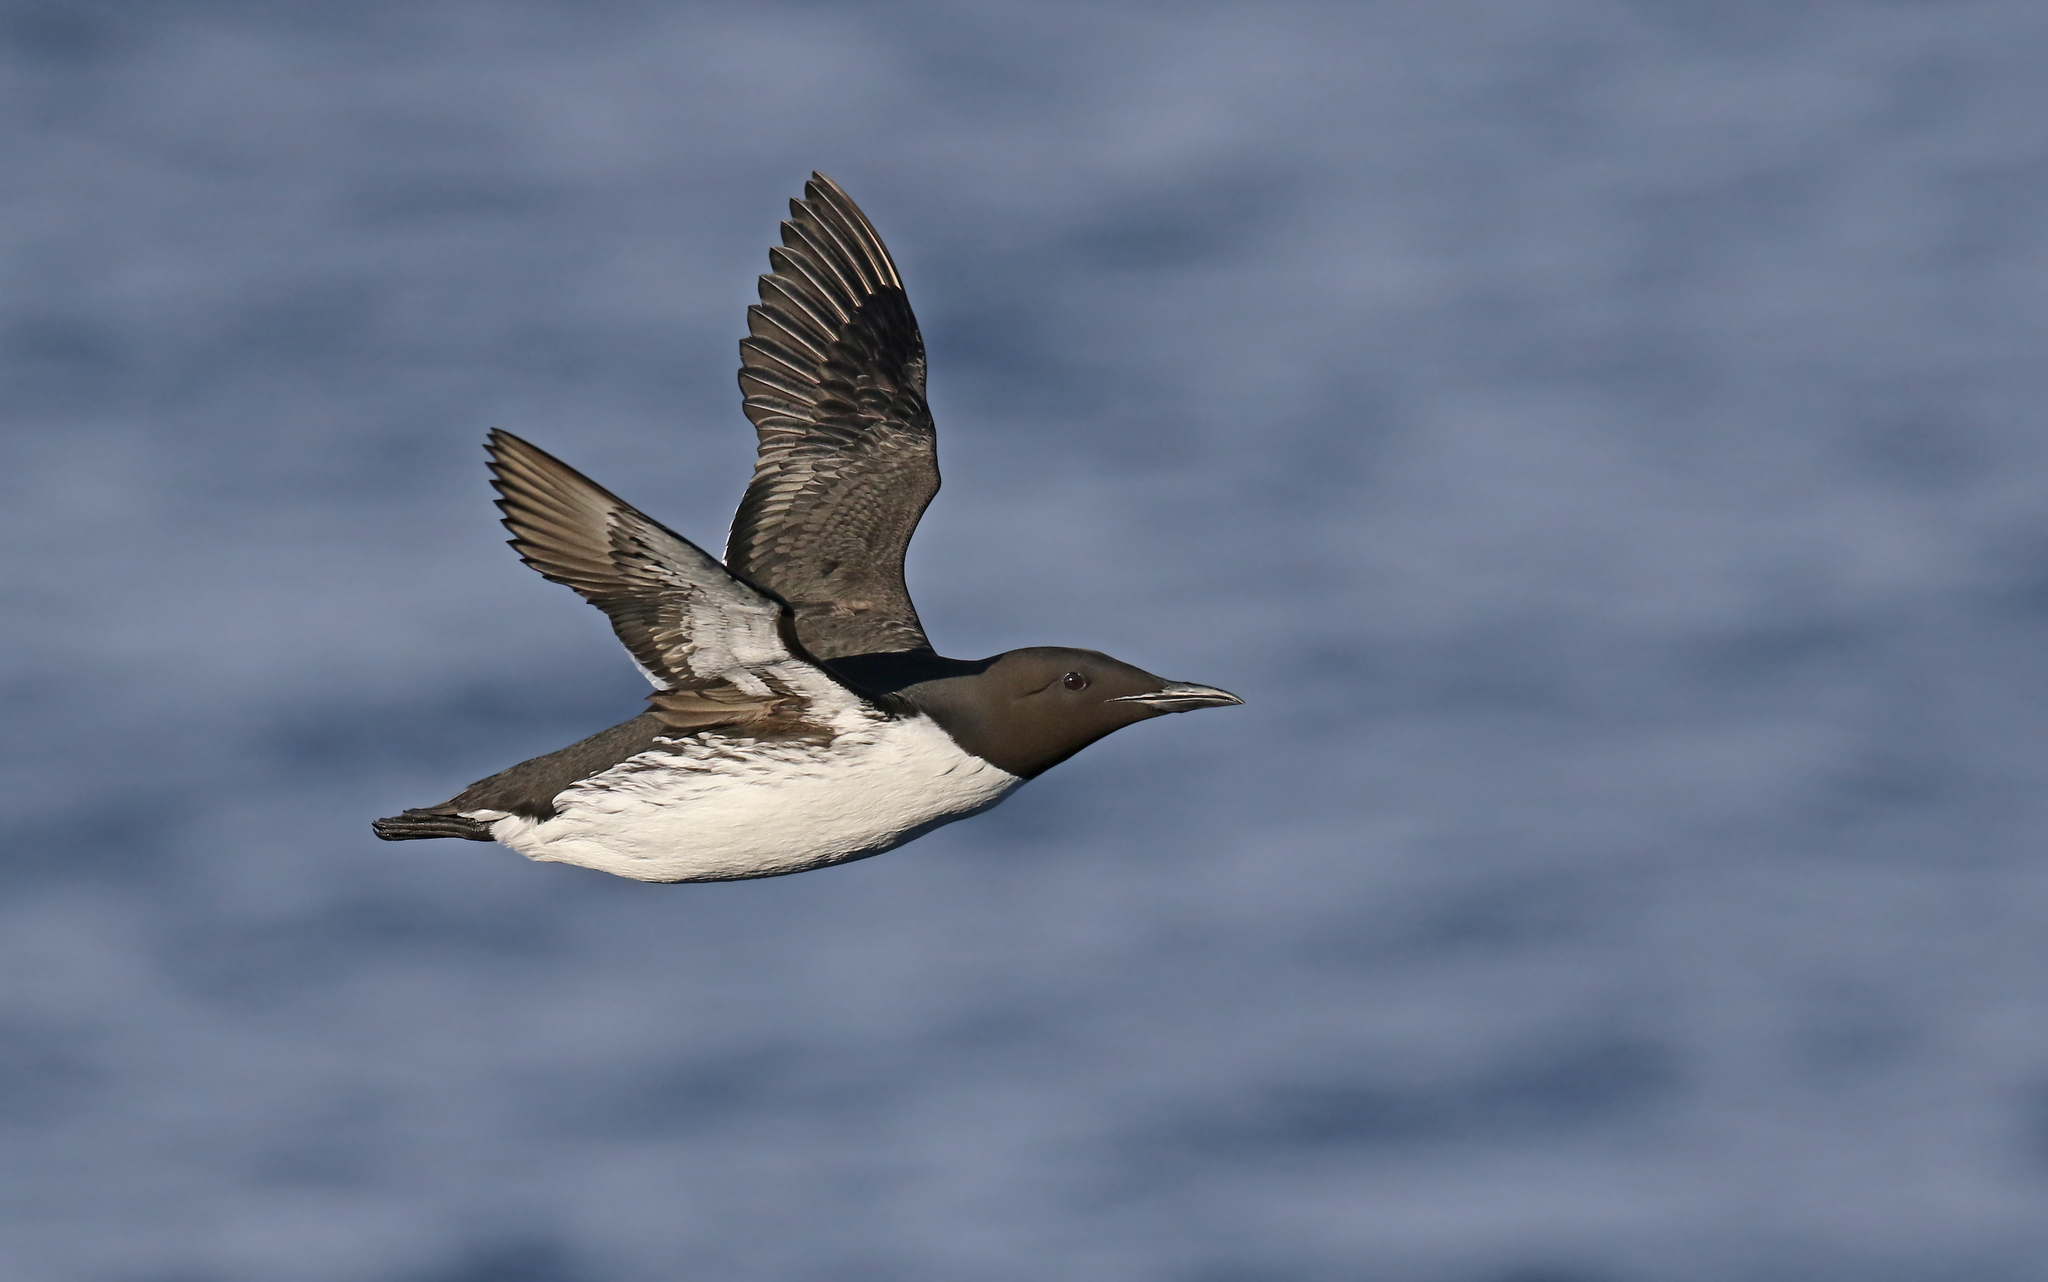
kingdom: Animalia
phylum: Chordata
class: Aves
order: Charadriiformes
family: Alcidae
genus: Uria
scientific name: Uria aalge
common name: Common murre
